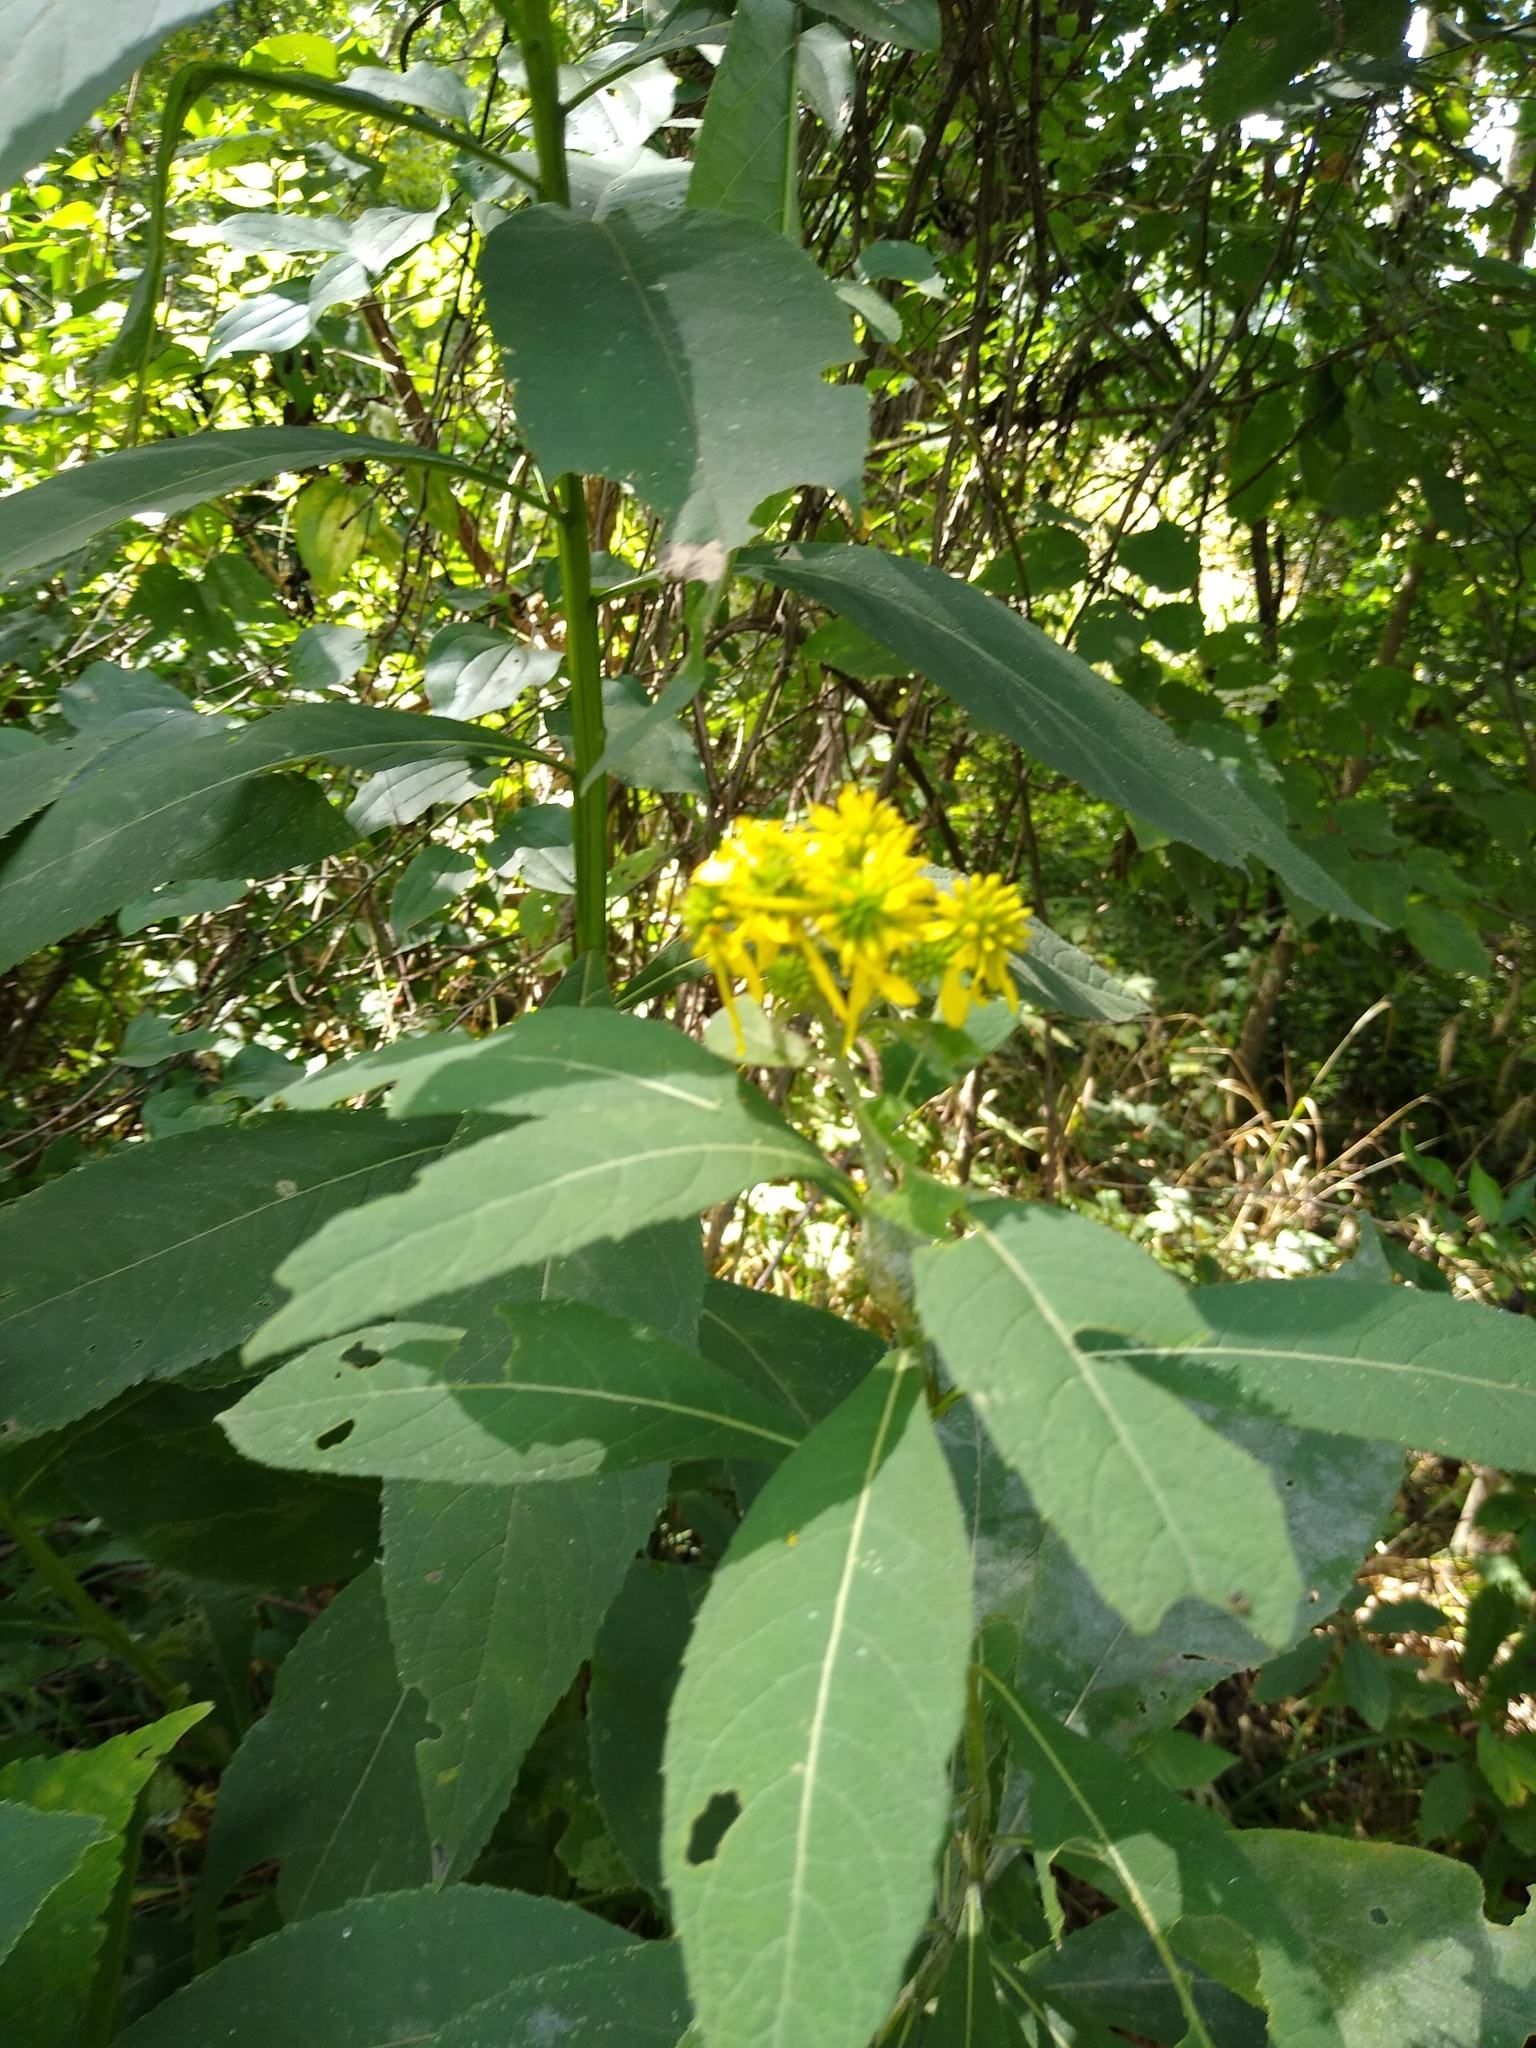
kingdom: Plantae
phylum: Tracheophyta
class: Magnoliopsida
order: Asterales
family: Asteraceae
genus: Verbesina
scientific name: Verbesina alternifolia
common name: Wingstem
